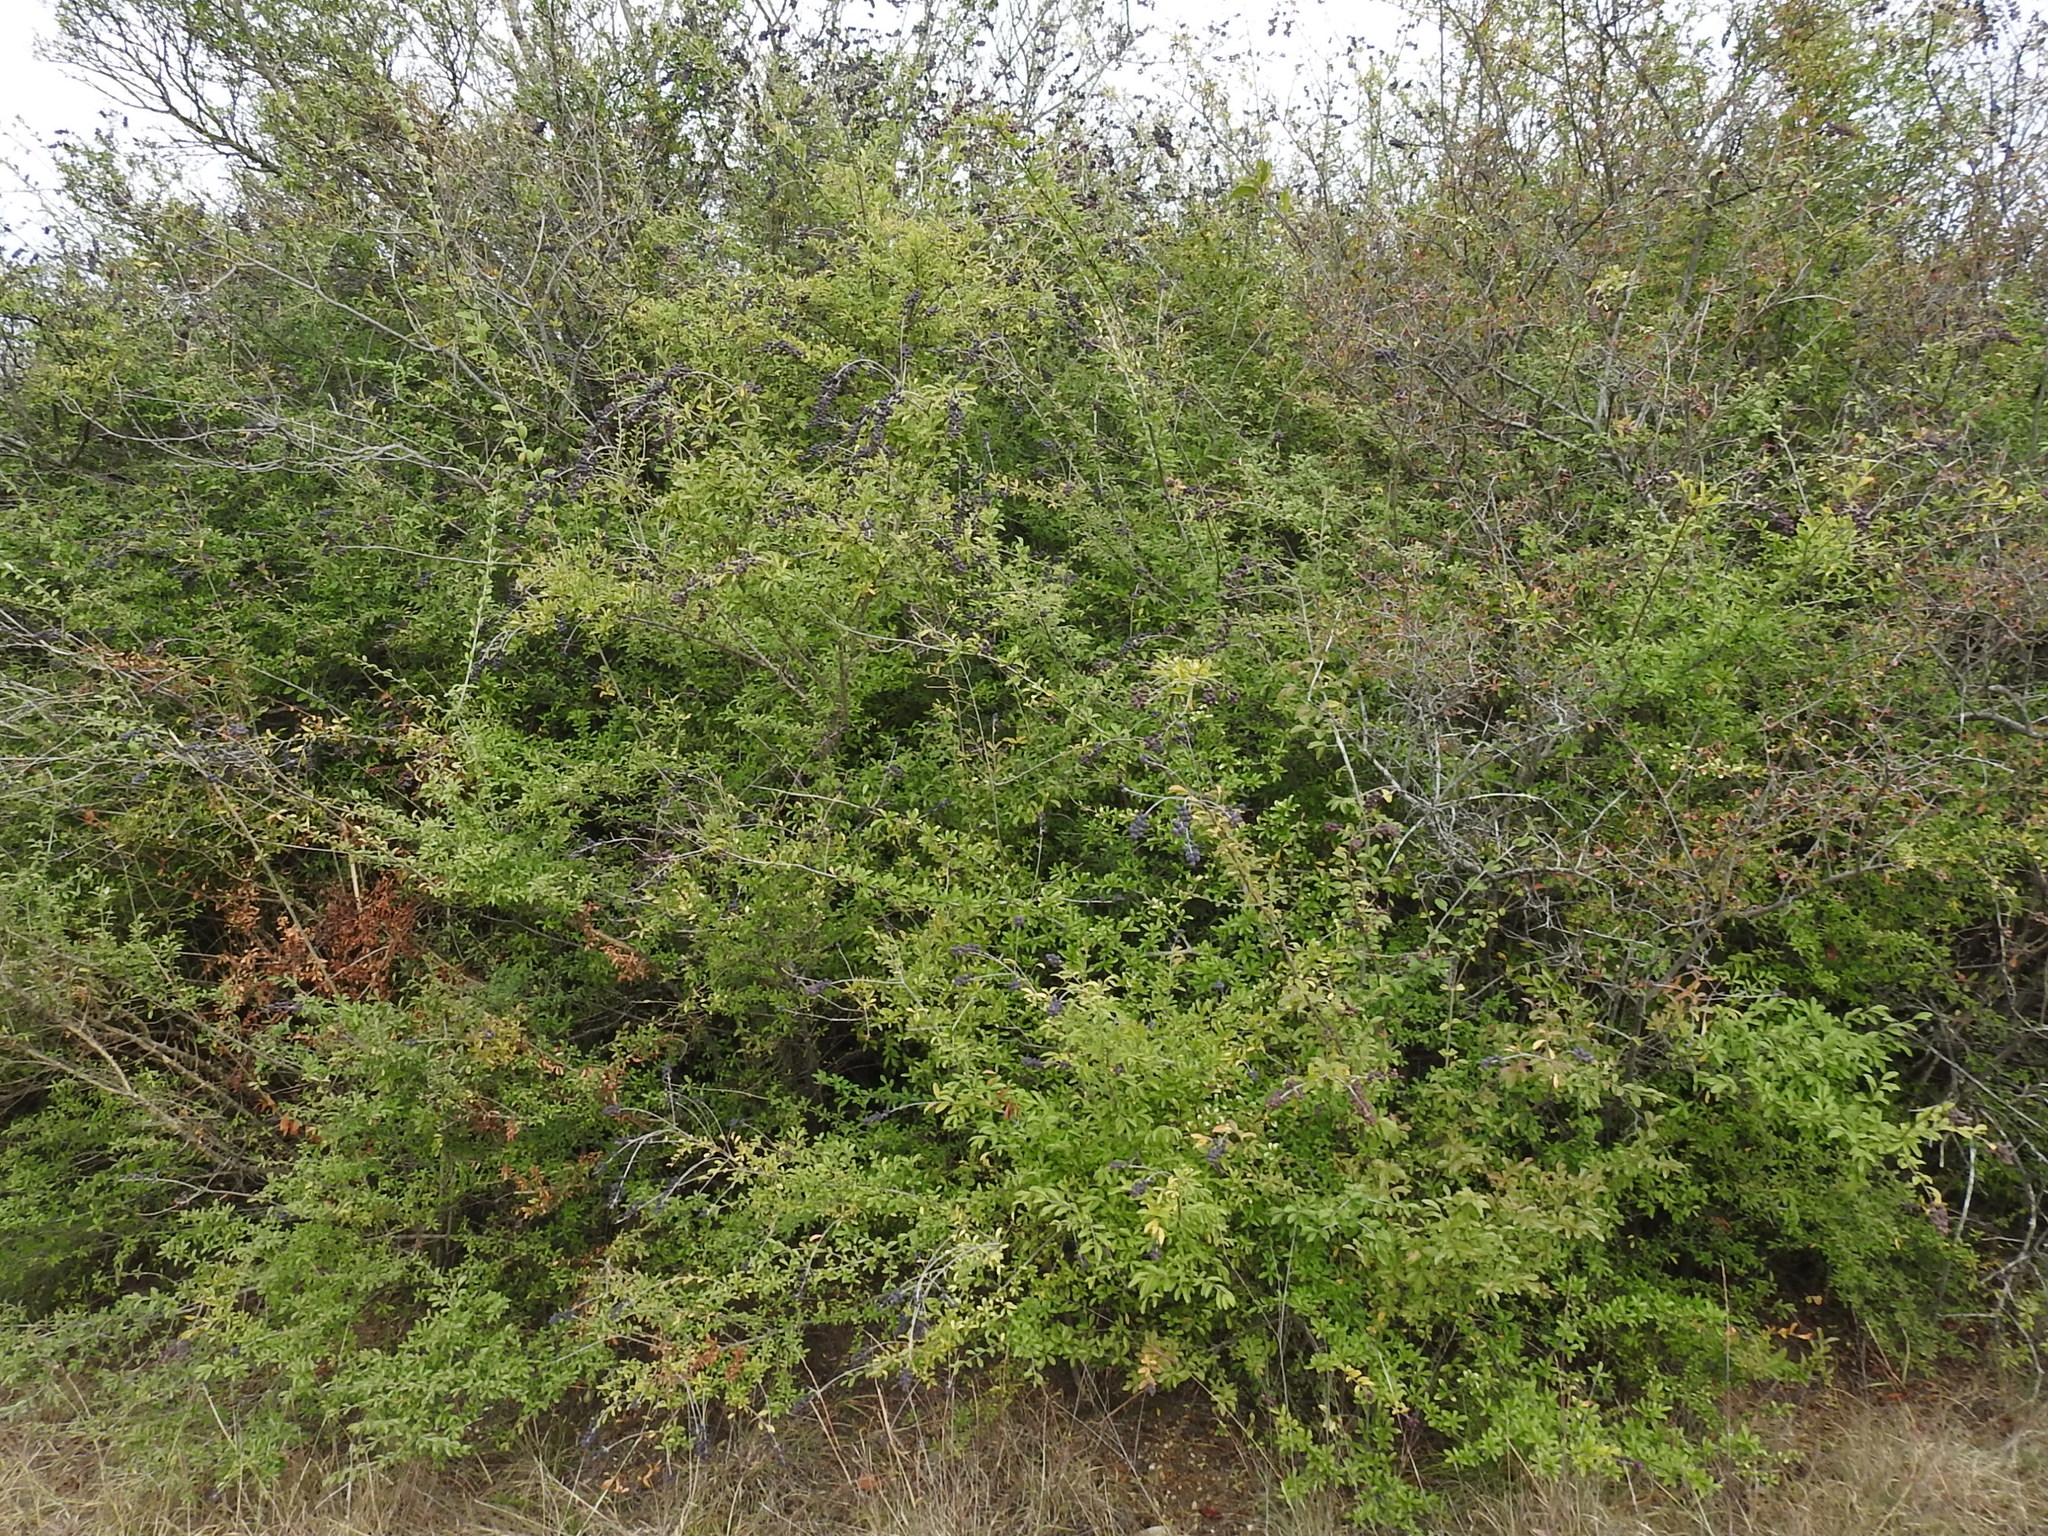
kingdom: Plantae
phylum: Tracheophyta
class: Magnoliopsida
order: Lamiales
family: Oleaceae
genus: Ligustrum
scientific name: Ligustrum quihoui
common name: Waxyleaf privet
